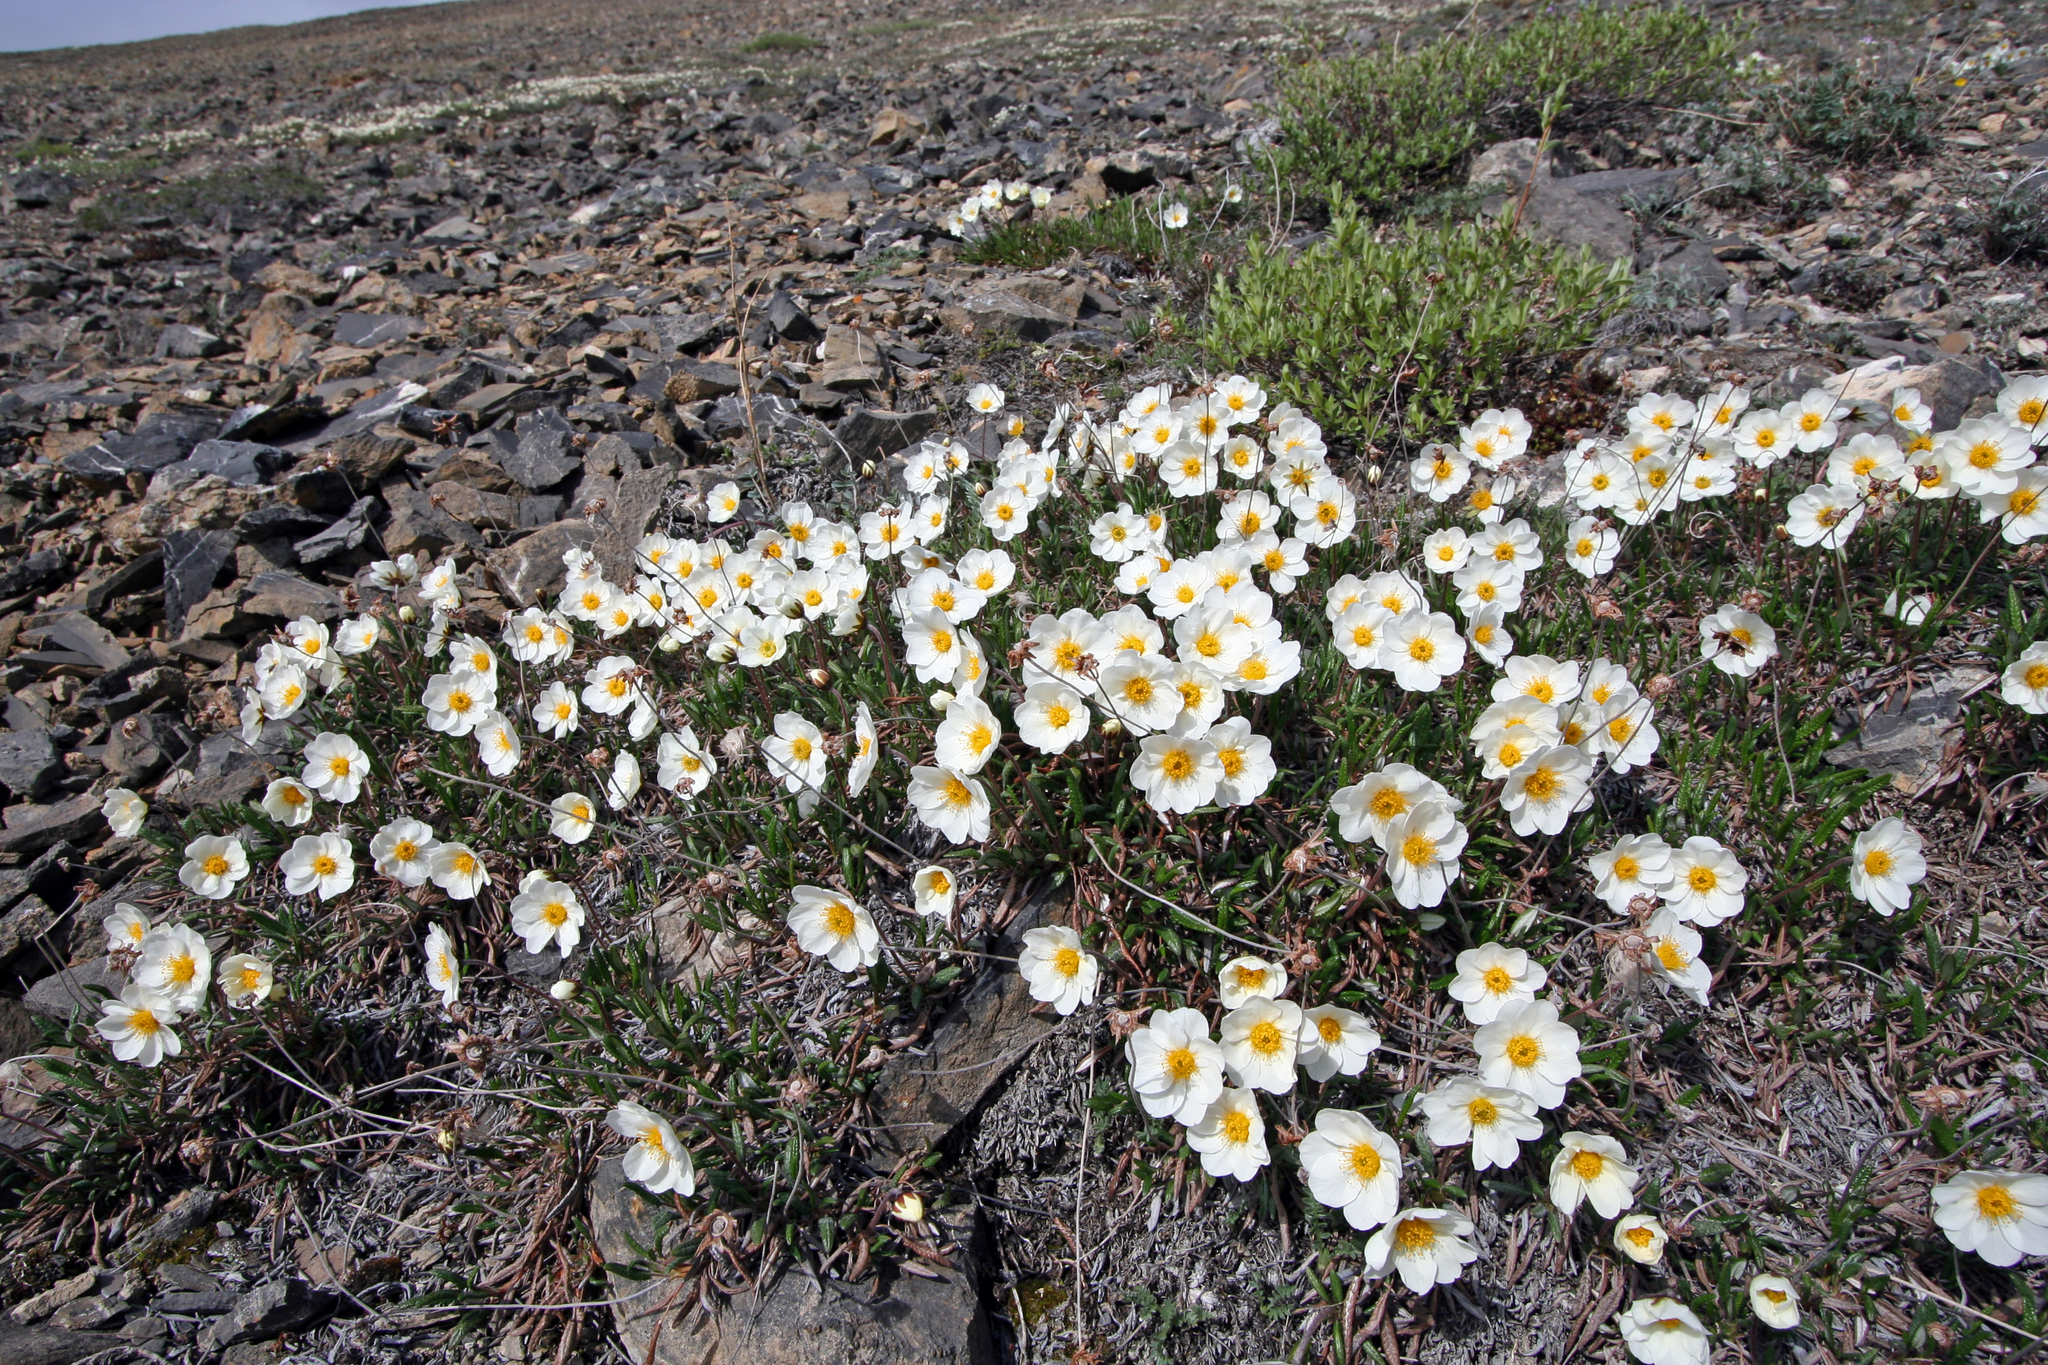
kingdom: Plantae
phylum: Tracheophyta
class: Magnoliopsida
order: Rosales
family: Rosaceae
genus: Dryas
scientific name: Dryas integrifolia
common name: Entire-leaved mountain avens
